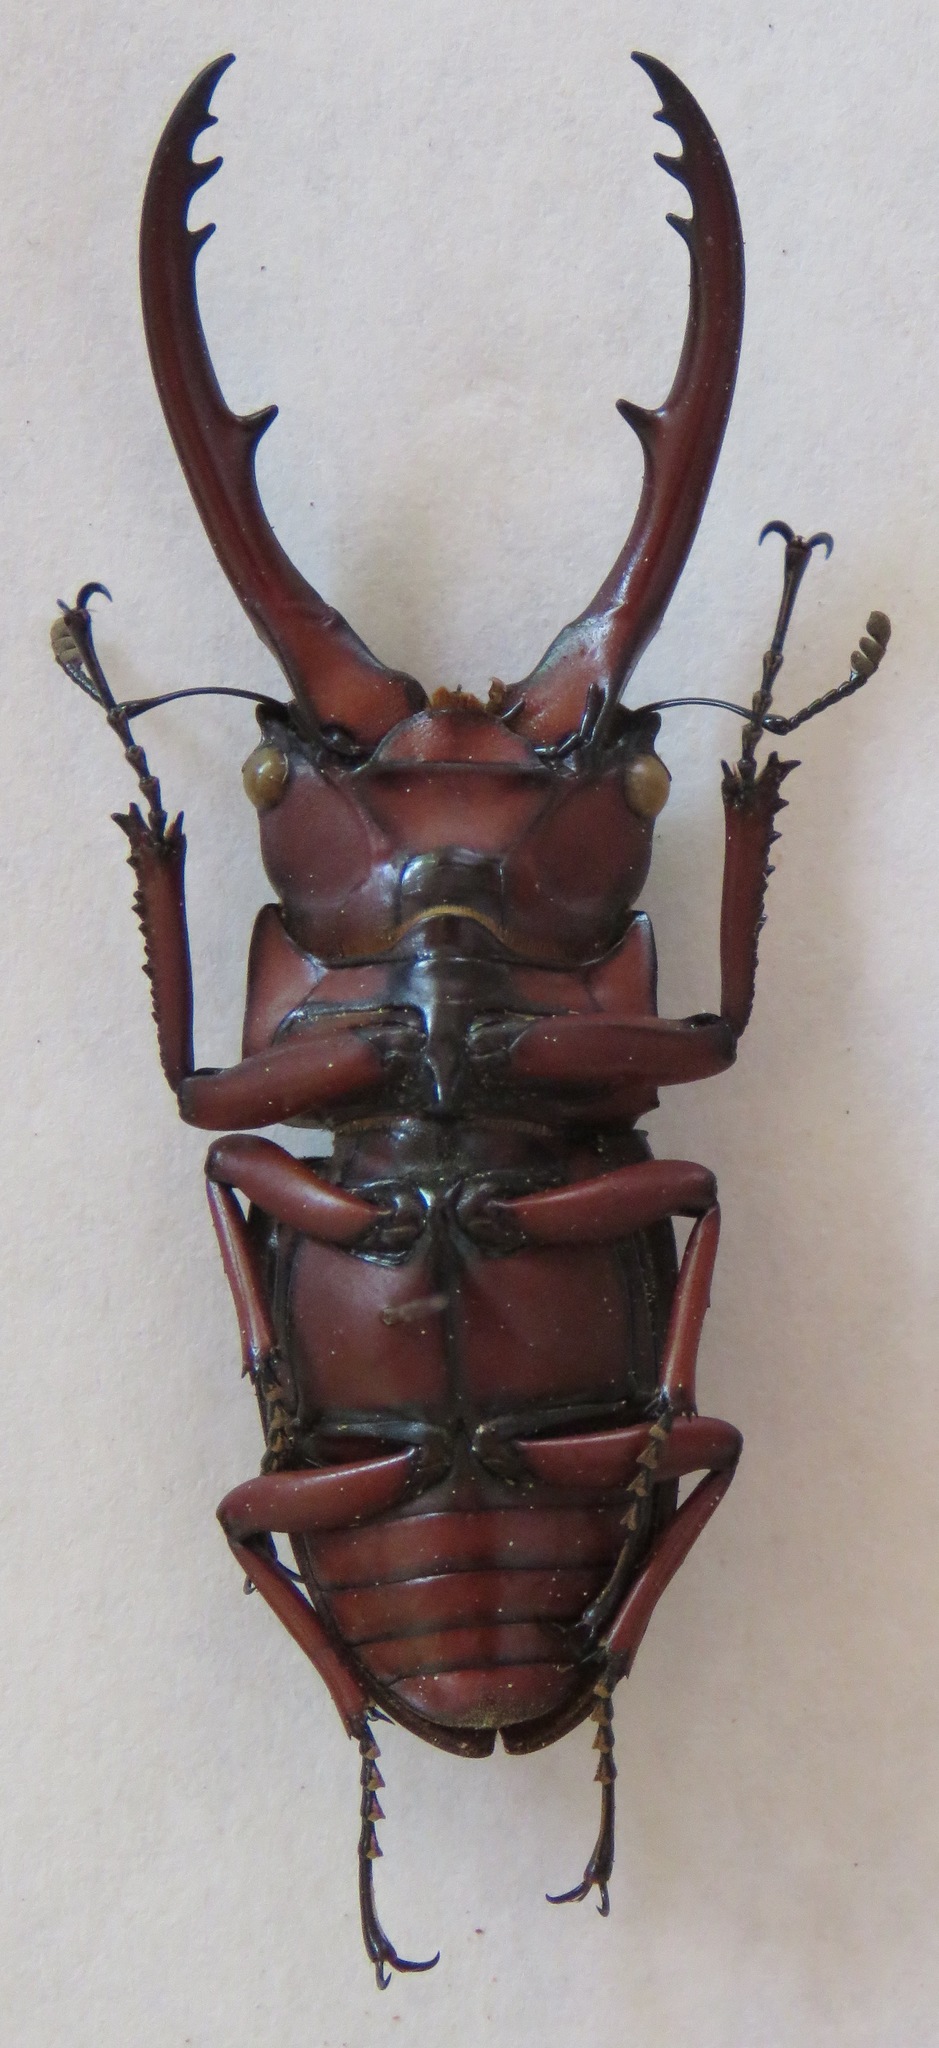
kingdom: Animalia
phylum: Arthropoda
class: Insecta
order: Coleoptera
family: Lucanidae
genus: Prosopocoilus
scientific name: Prosopocoilus astacoides
